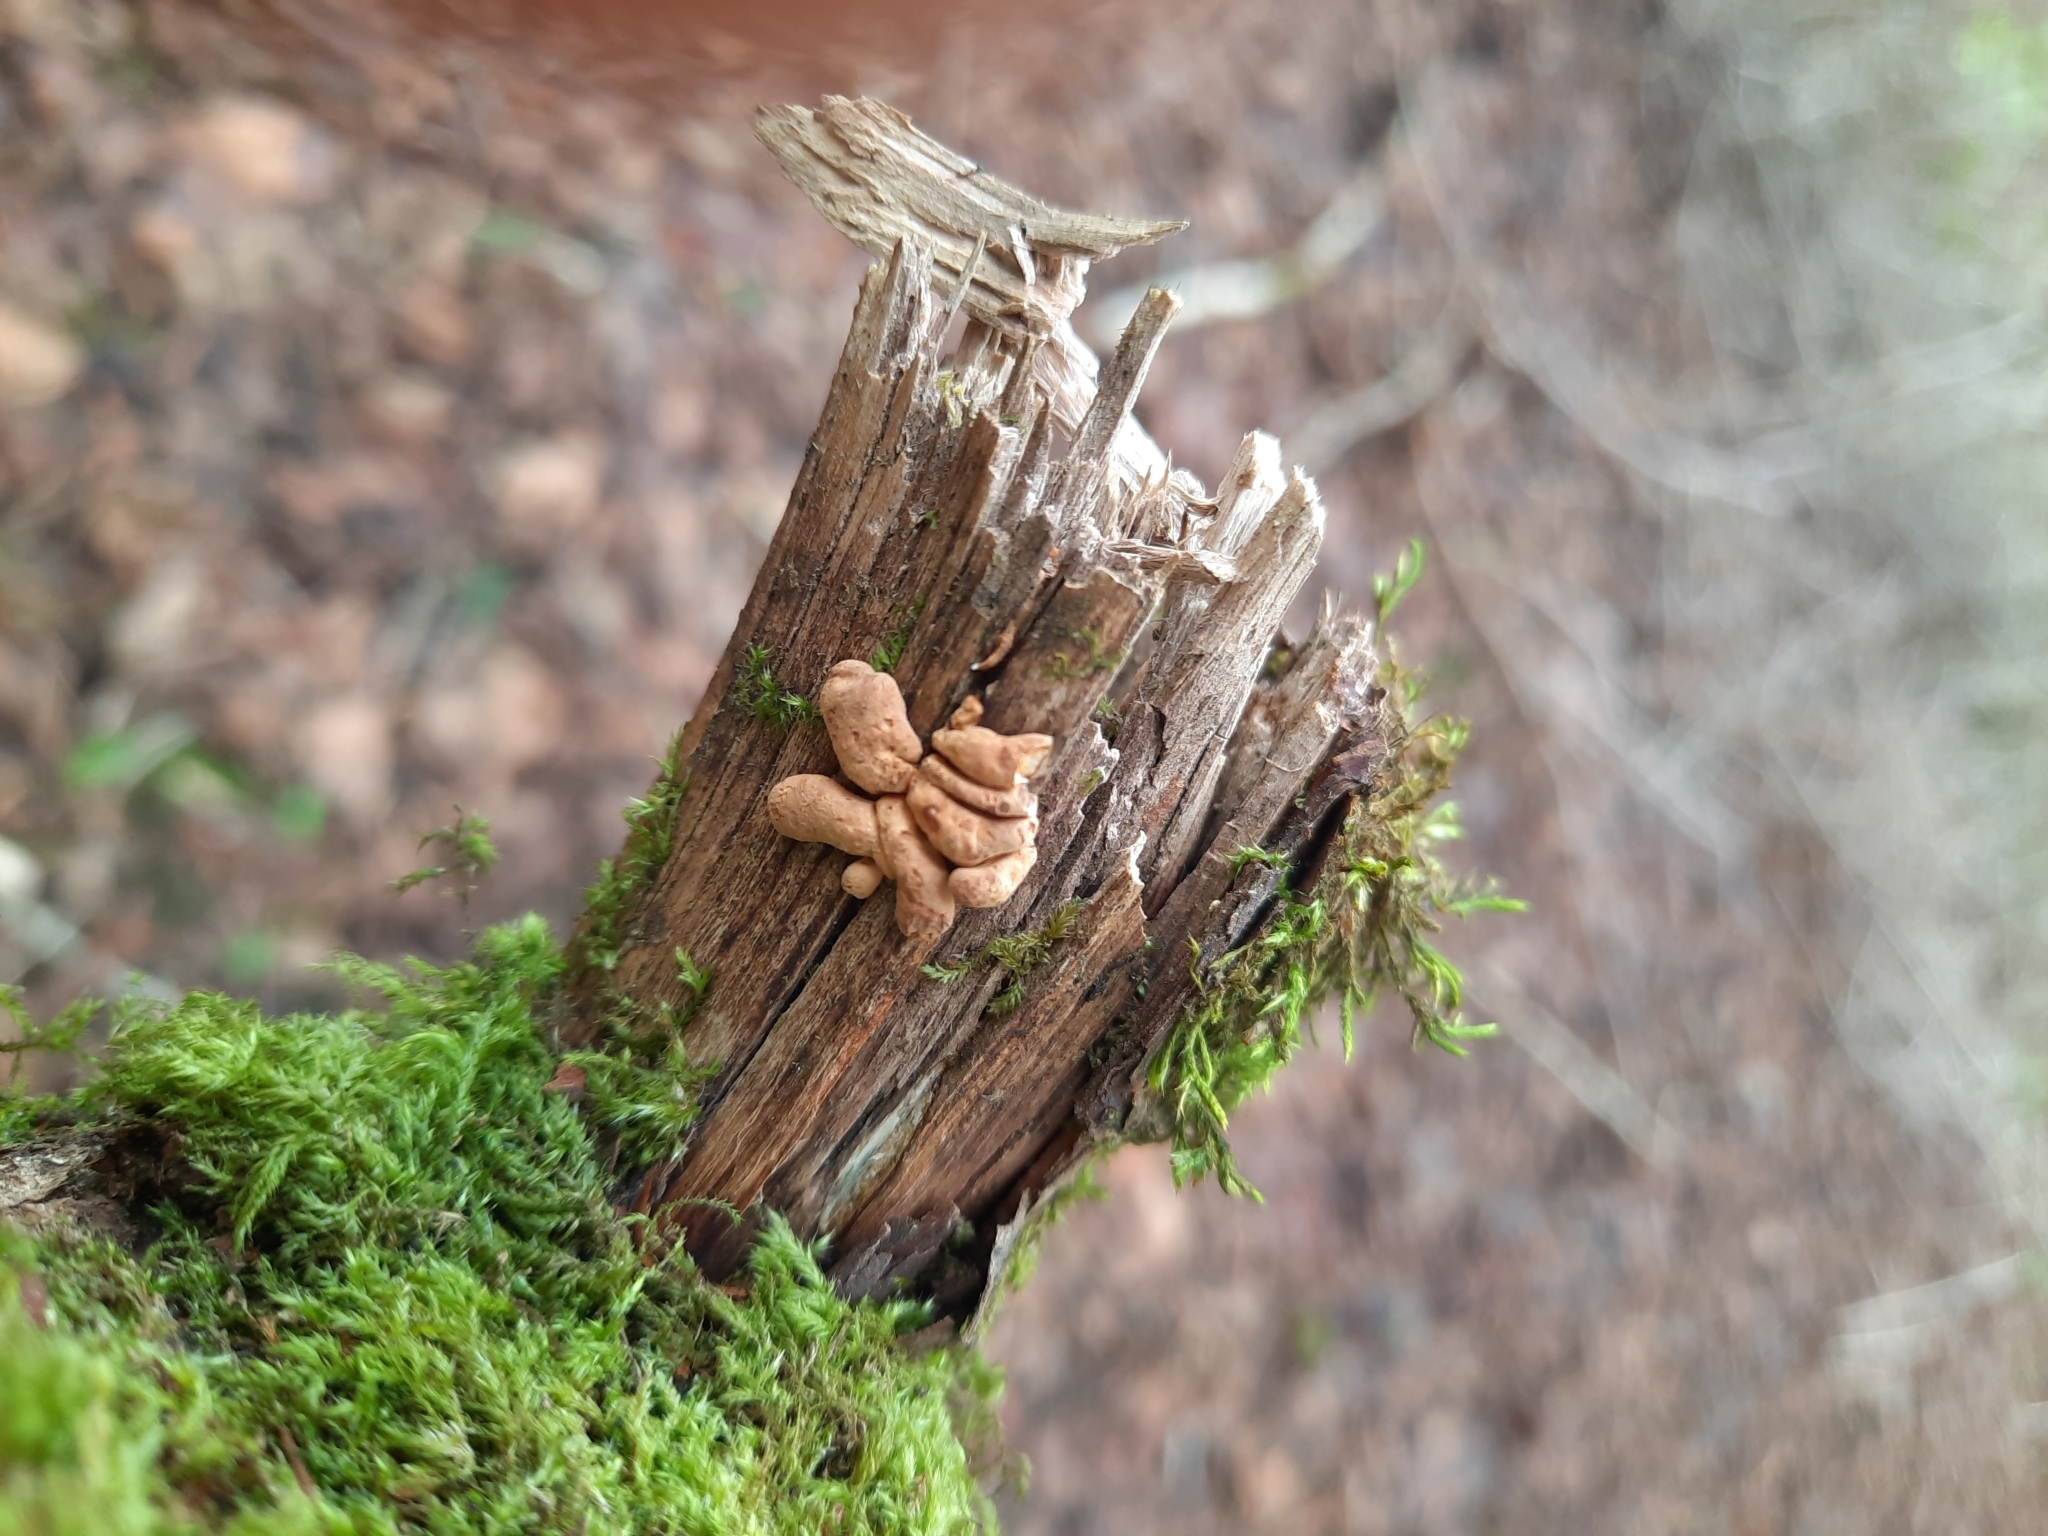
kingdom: Fungi
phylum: Ascomycota
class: Sordariomycetes
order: Hypocreales
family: Hypocreaceae
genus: Hypocreopsis
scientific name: Hypocreopsis rhododendri
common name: Hazel gloves
